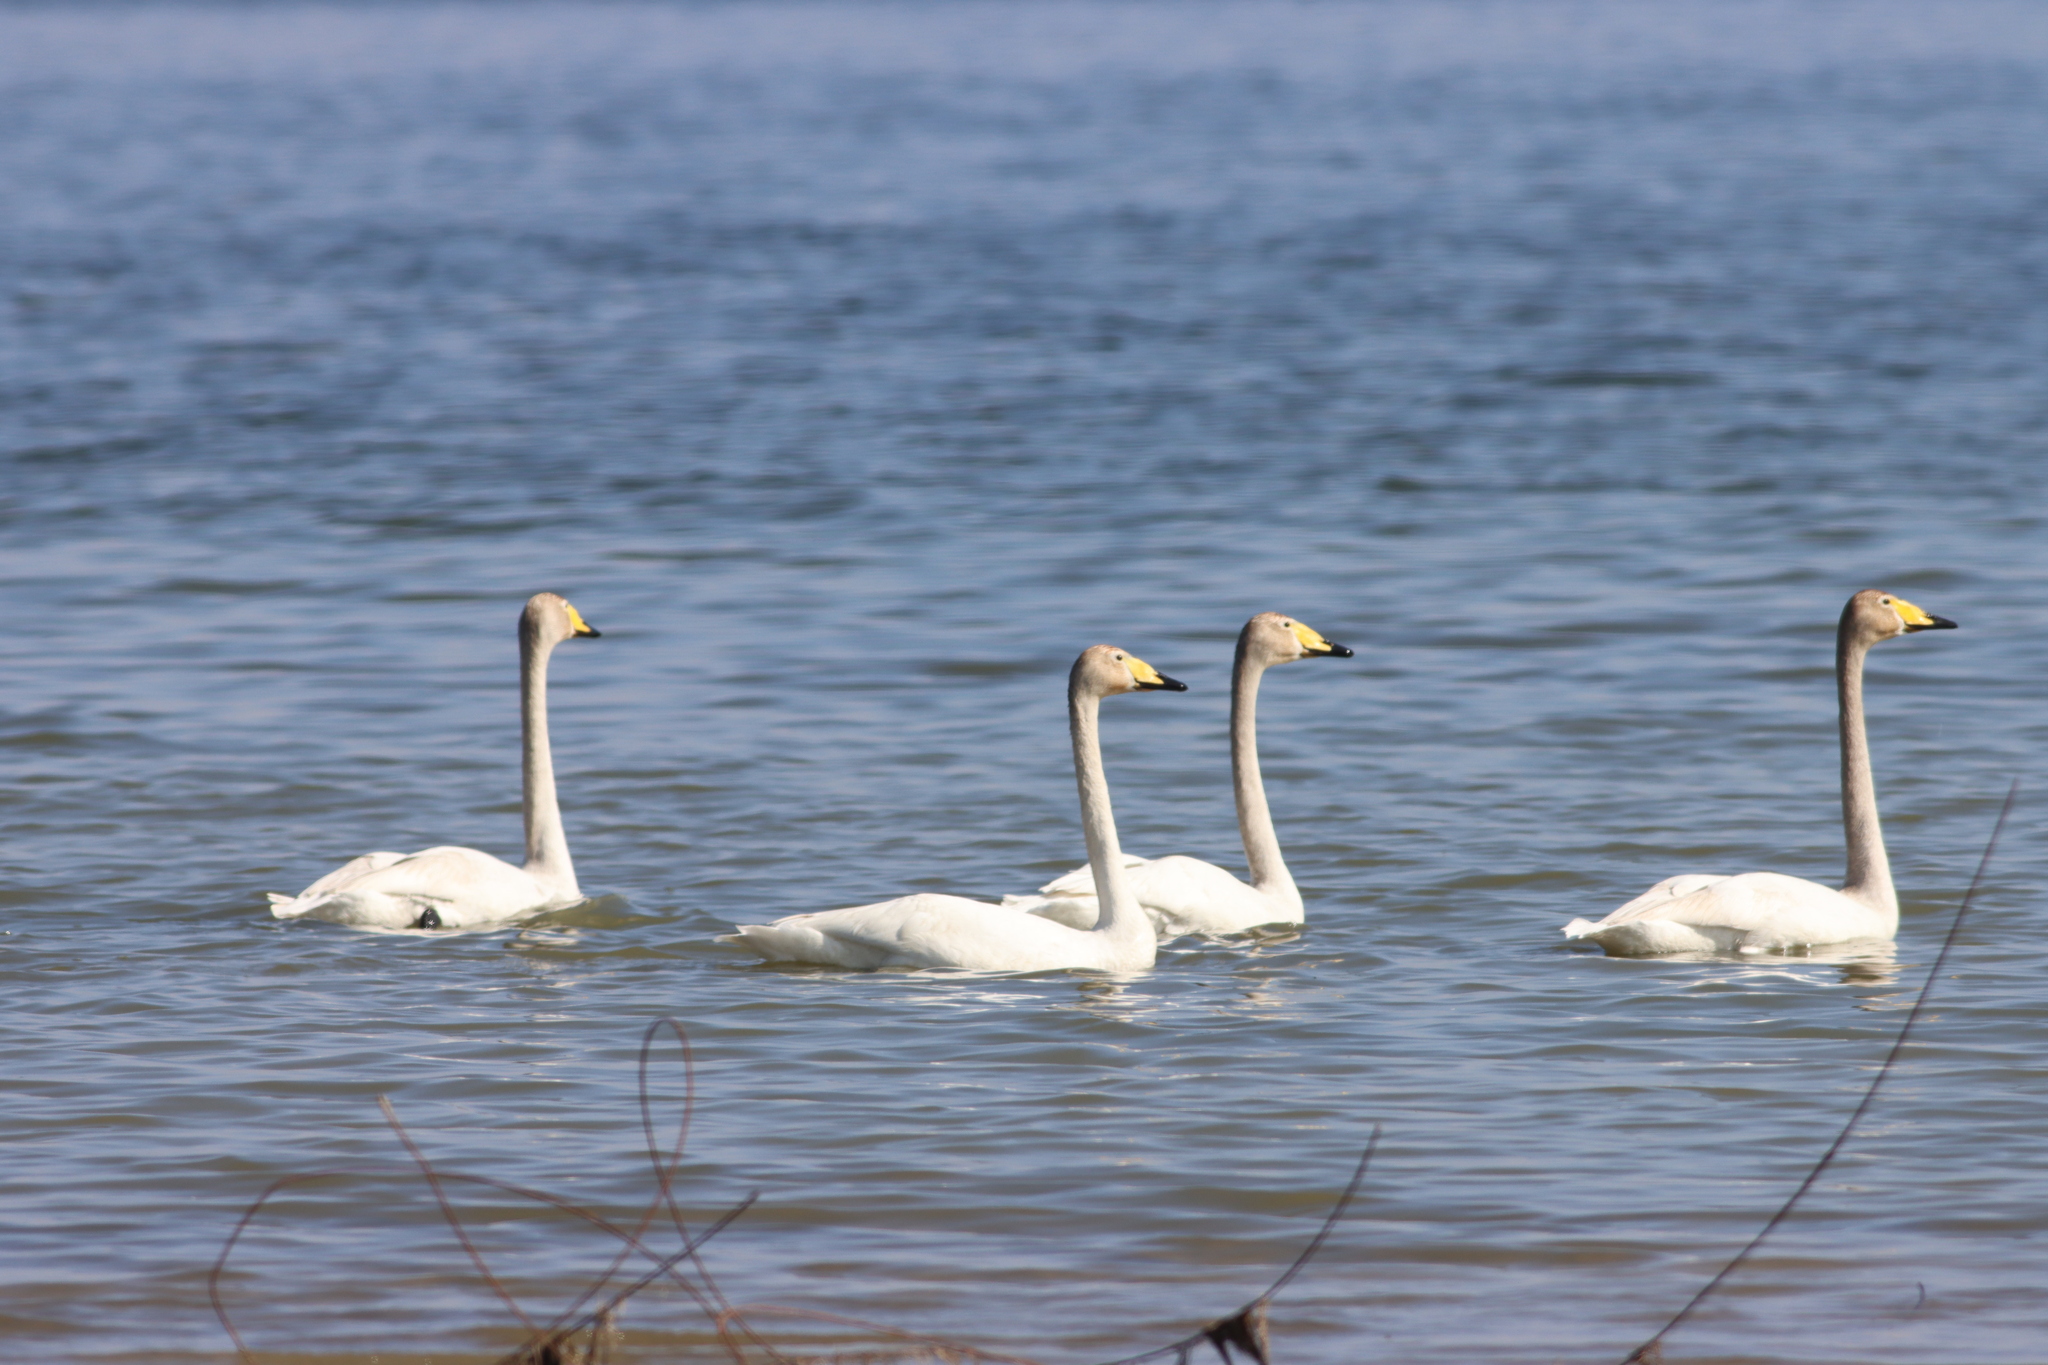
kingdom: Animalia
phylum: Chordata
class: Aves
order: Anseriformes
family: Anatidae
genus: Cygnus
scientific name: Cygnus cygnus
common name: Whooper swan
